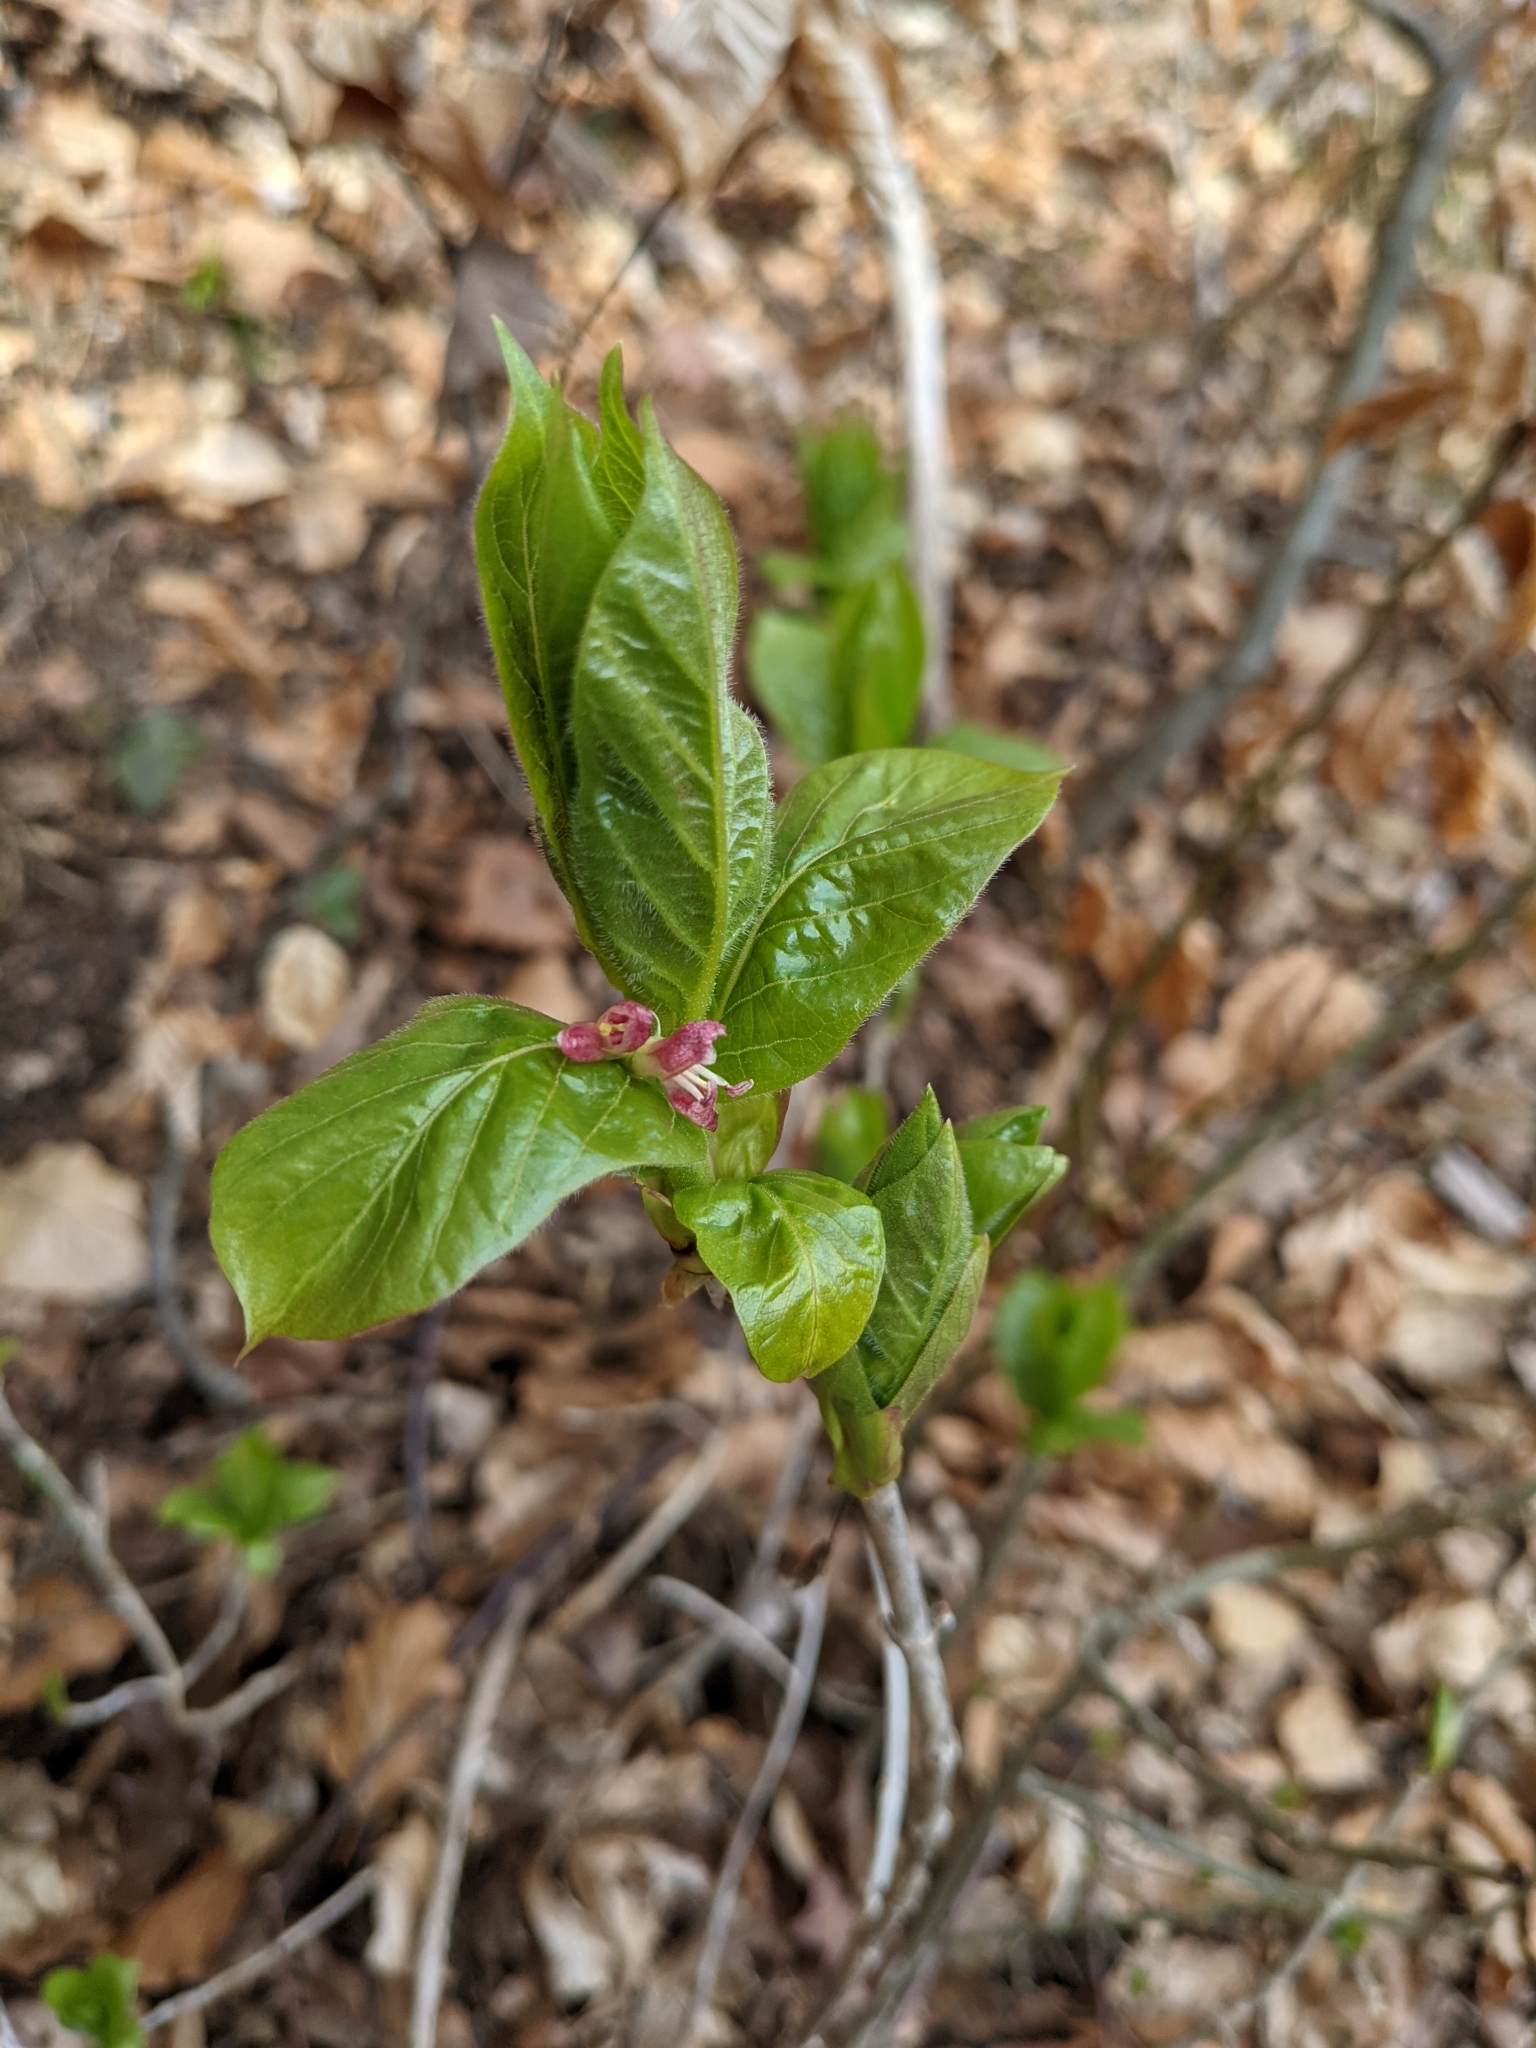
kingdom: Plantae
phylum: Tracheophyta
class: Magnoliopsida
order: Dipsacales
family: Caprifoliaceae
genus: Lonicera
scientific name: Lonicera alpigena
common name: Alpine honeysuckle
